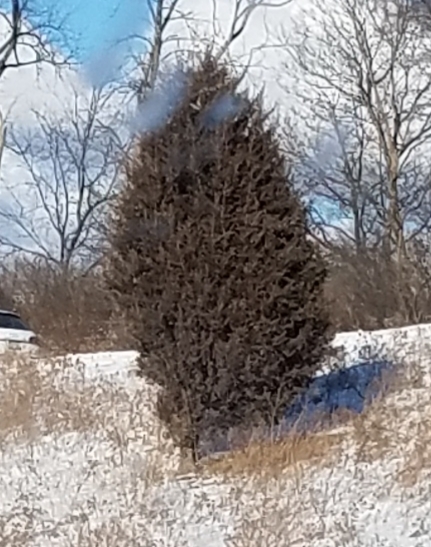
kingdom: Plantae
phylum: Tracheophyta
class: Pinopsida
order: Pinales
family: Cupressaceae
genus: Juniperus
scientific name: Juniperus virginiana
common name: Red juniper
